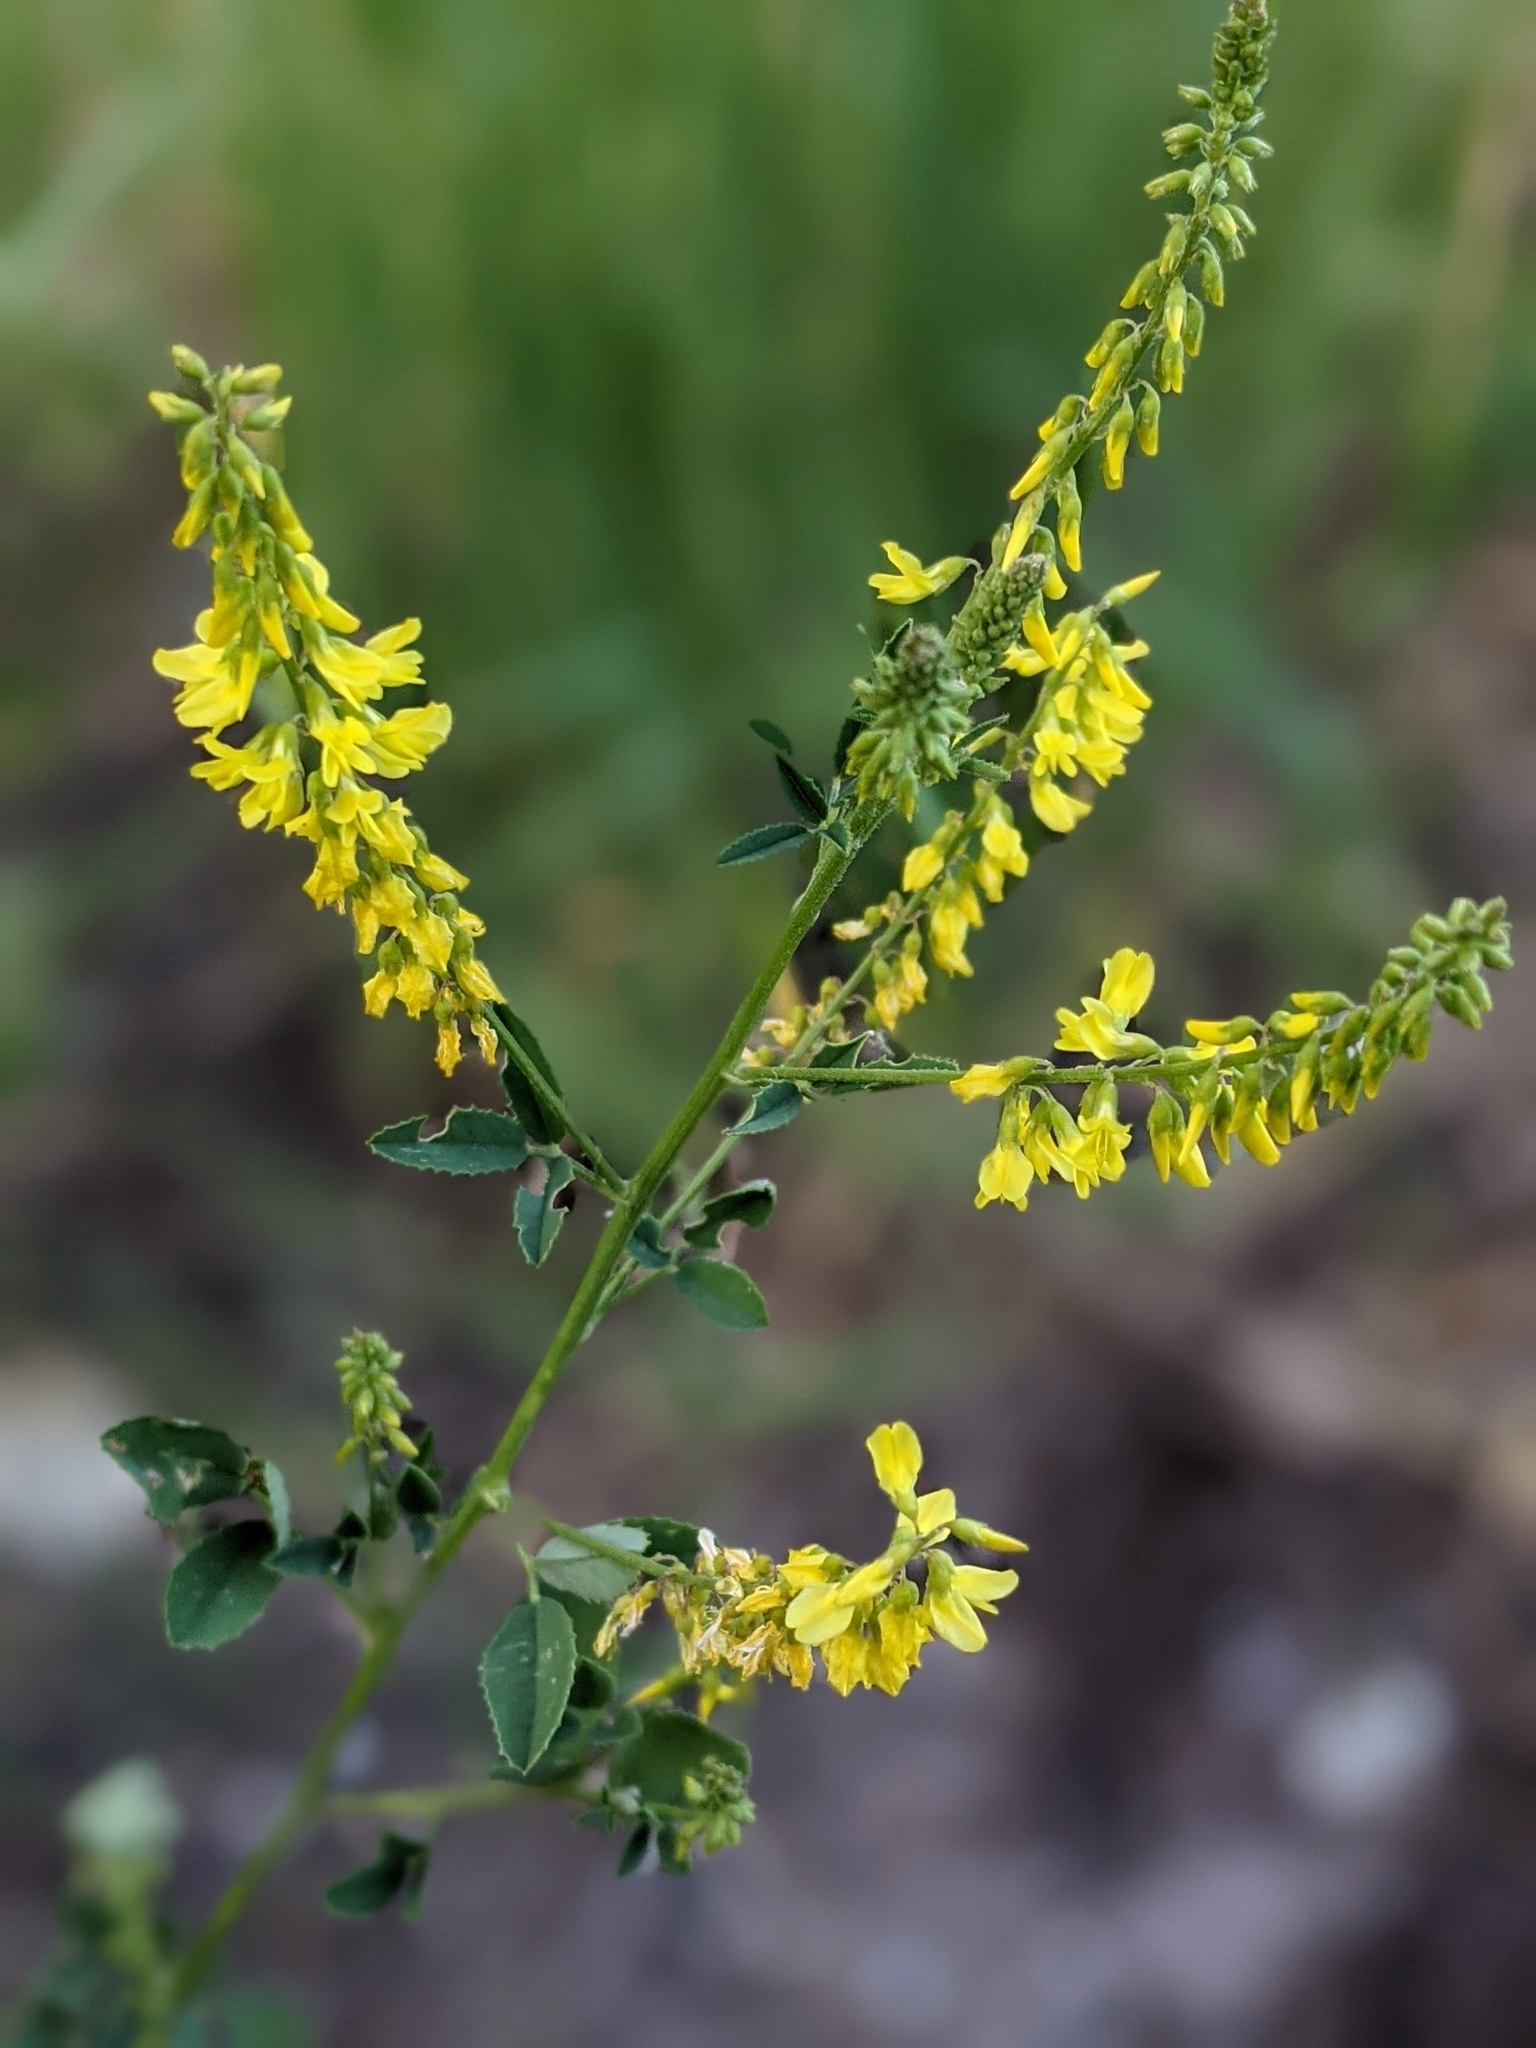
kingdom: Plantae
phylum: Tracheophyta
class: Magnoliopsida
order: Fabales
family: Fabaceae
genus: Melilotus
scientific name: Melilotus officinalis
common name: Sweetclover
